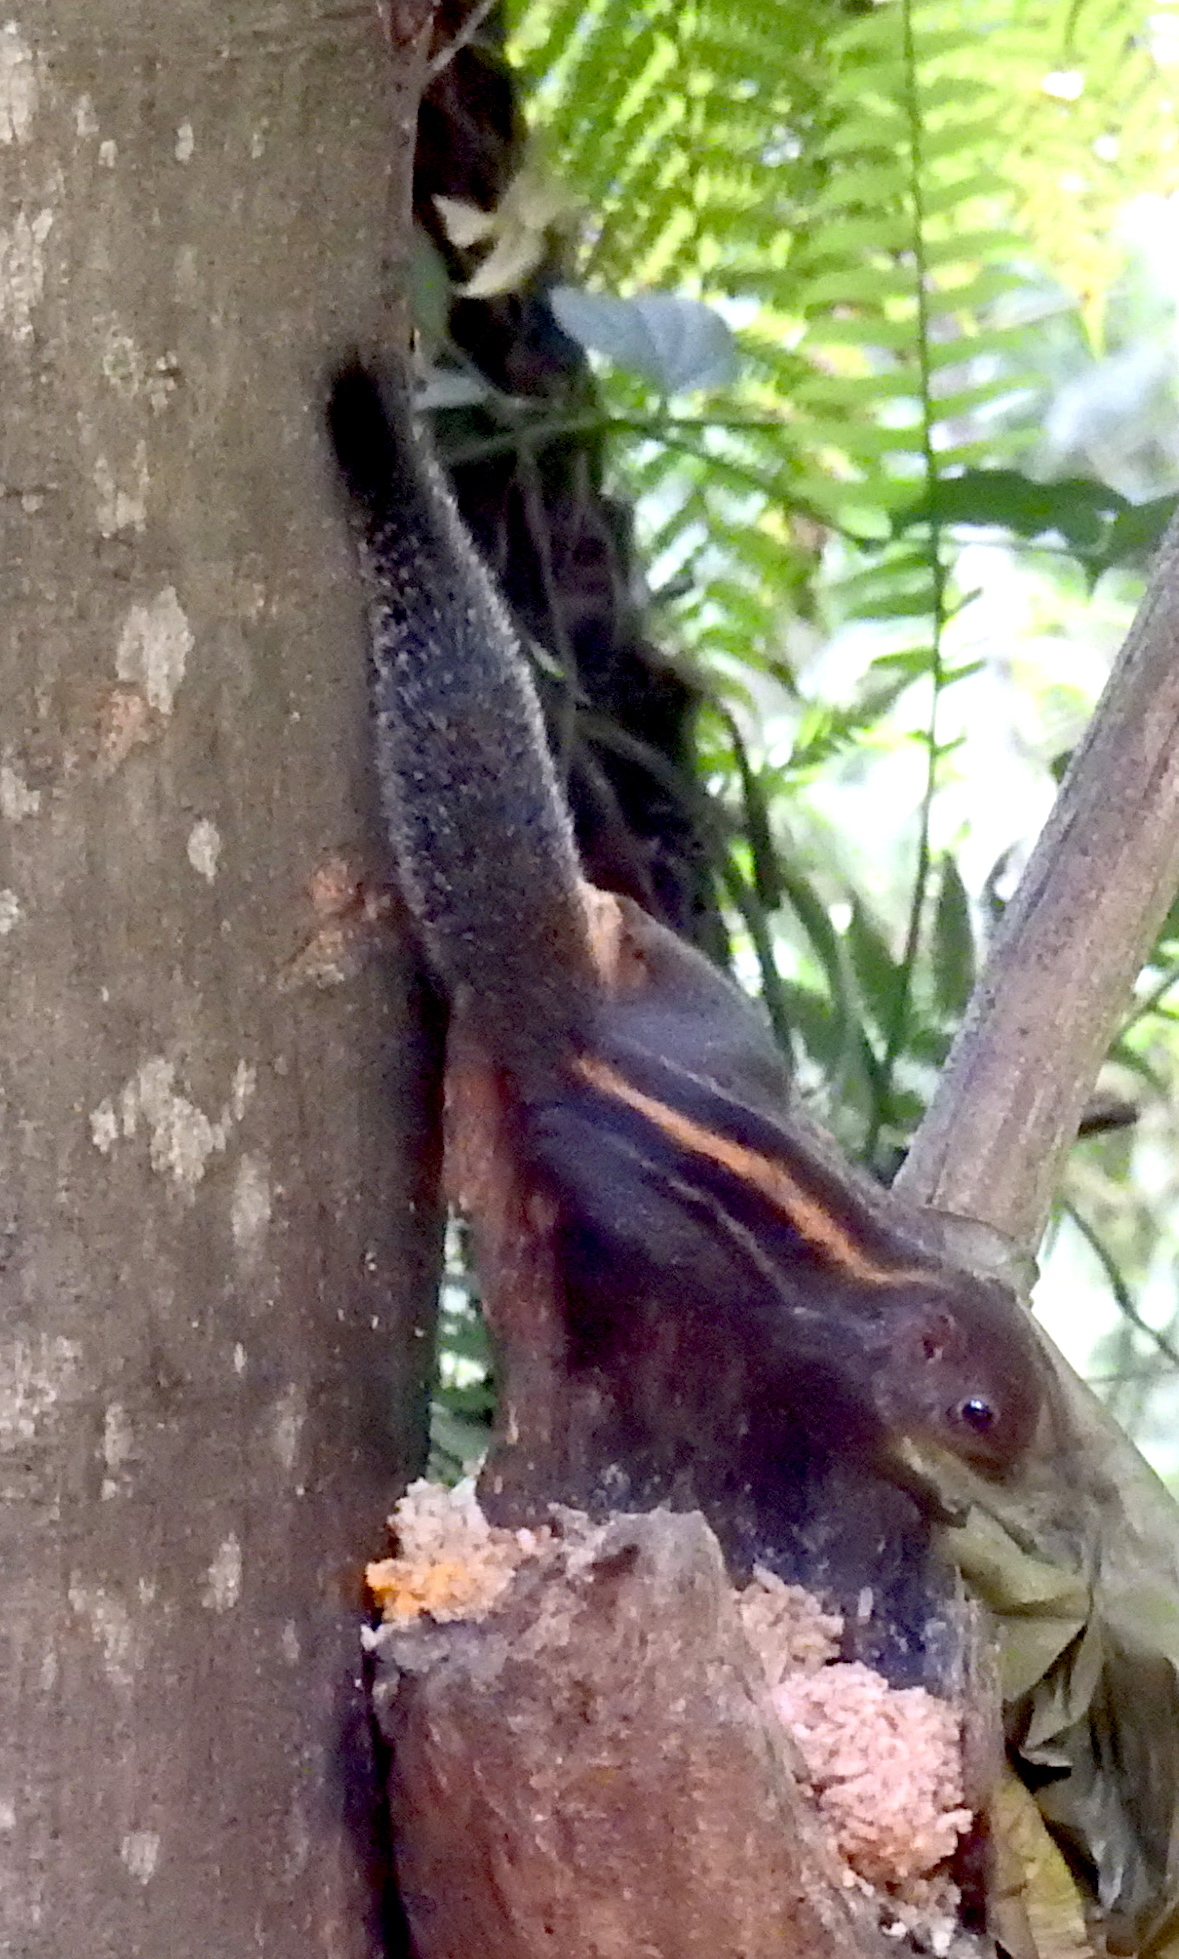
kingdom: Animalia
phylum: Chordata
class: Mammalia
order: Rodentia
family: Sciuridae
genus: Funambulus
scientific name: Funambulus layardi
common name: Layard's palm squirrel
